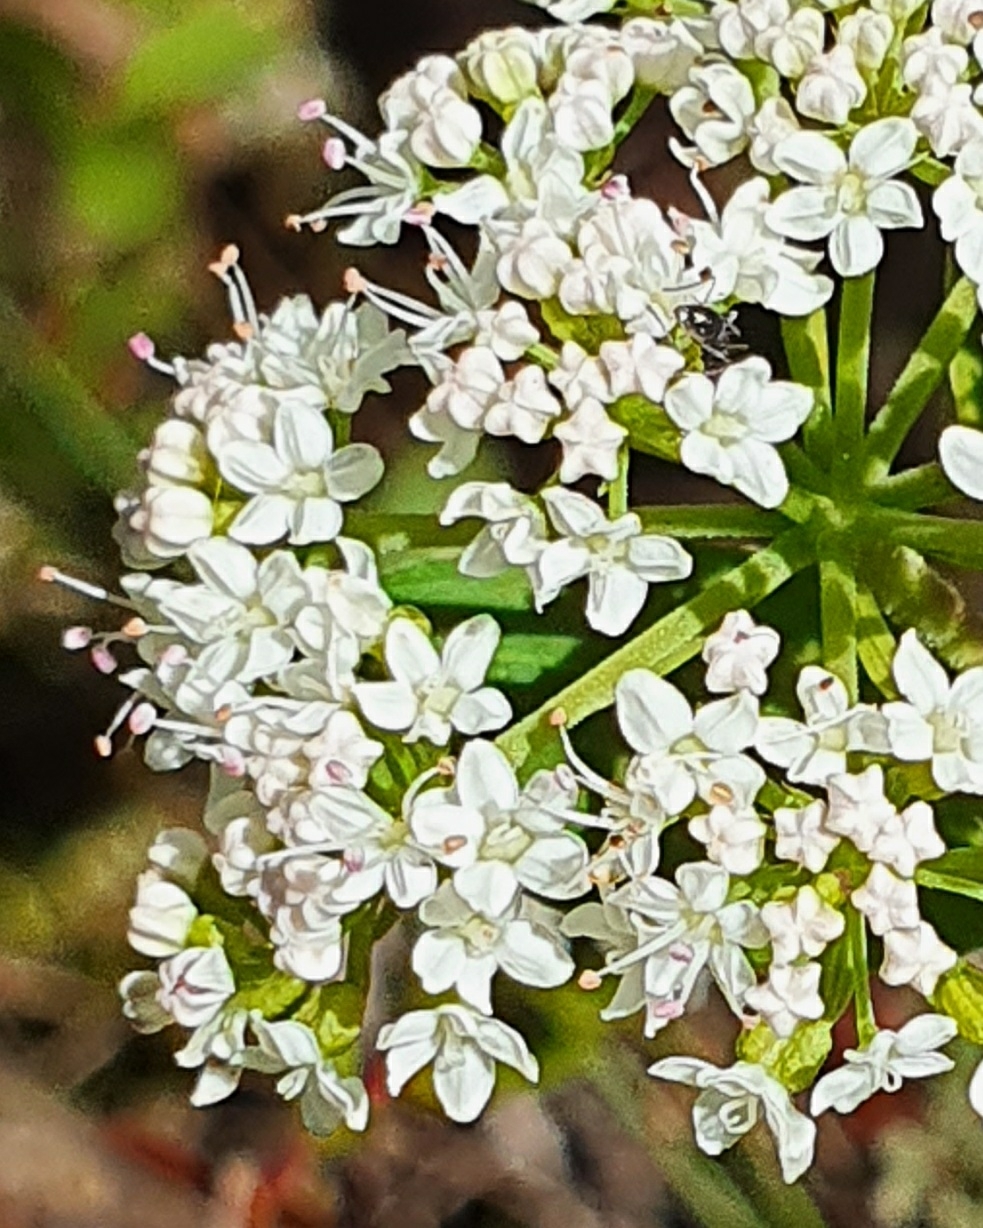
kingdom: Plantae
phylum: Tracheophyta
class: Magnoliopsida
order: Apiales
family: Apiaceae
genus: Platysace
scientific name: Platysace lanceolata
